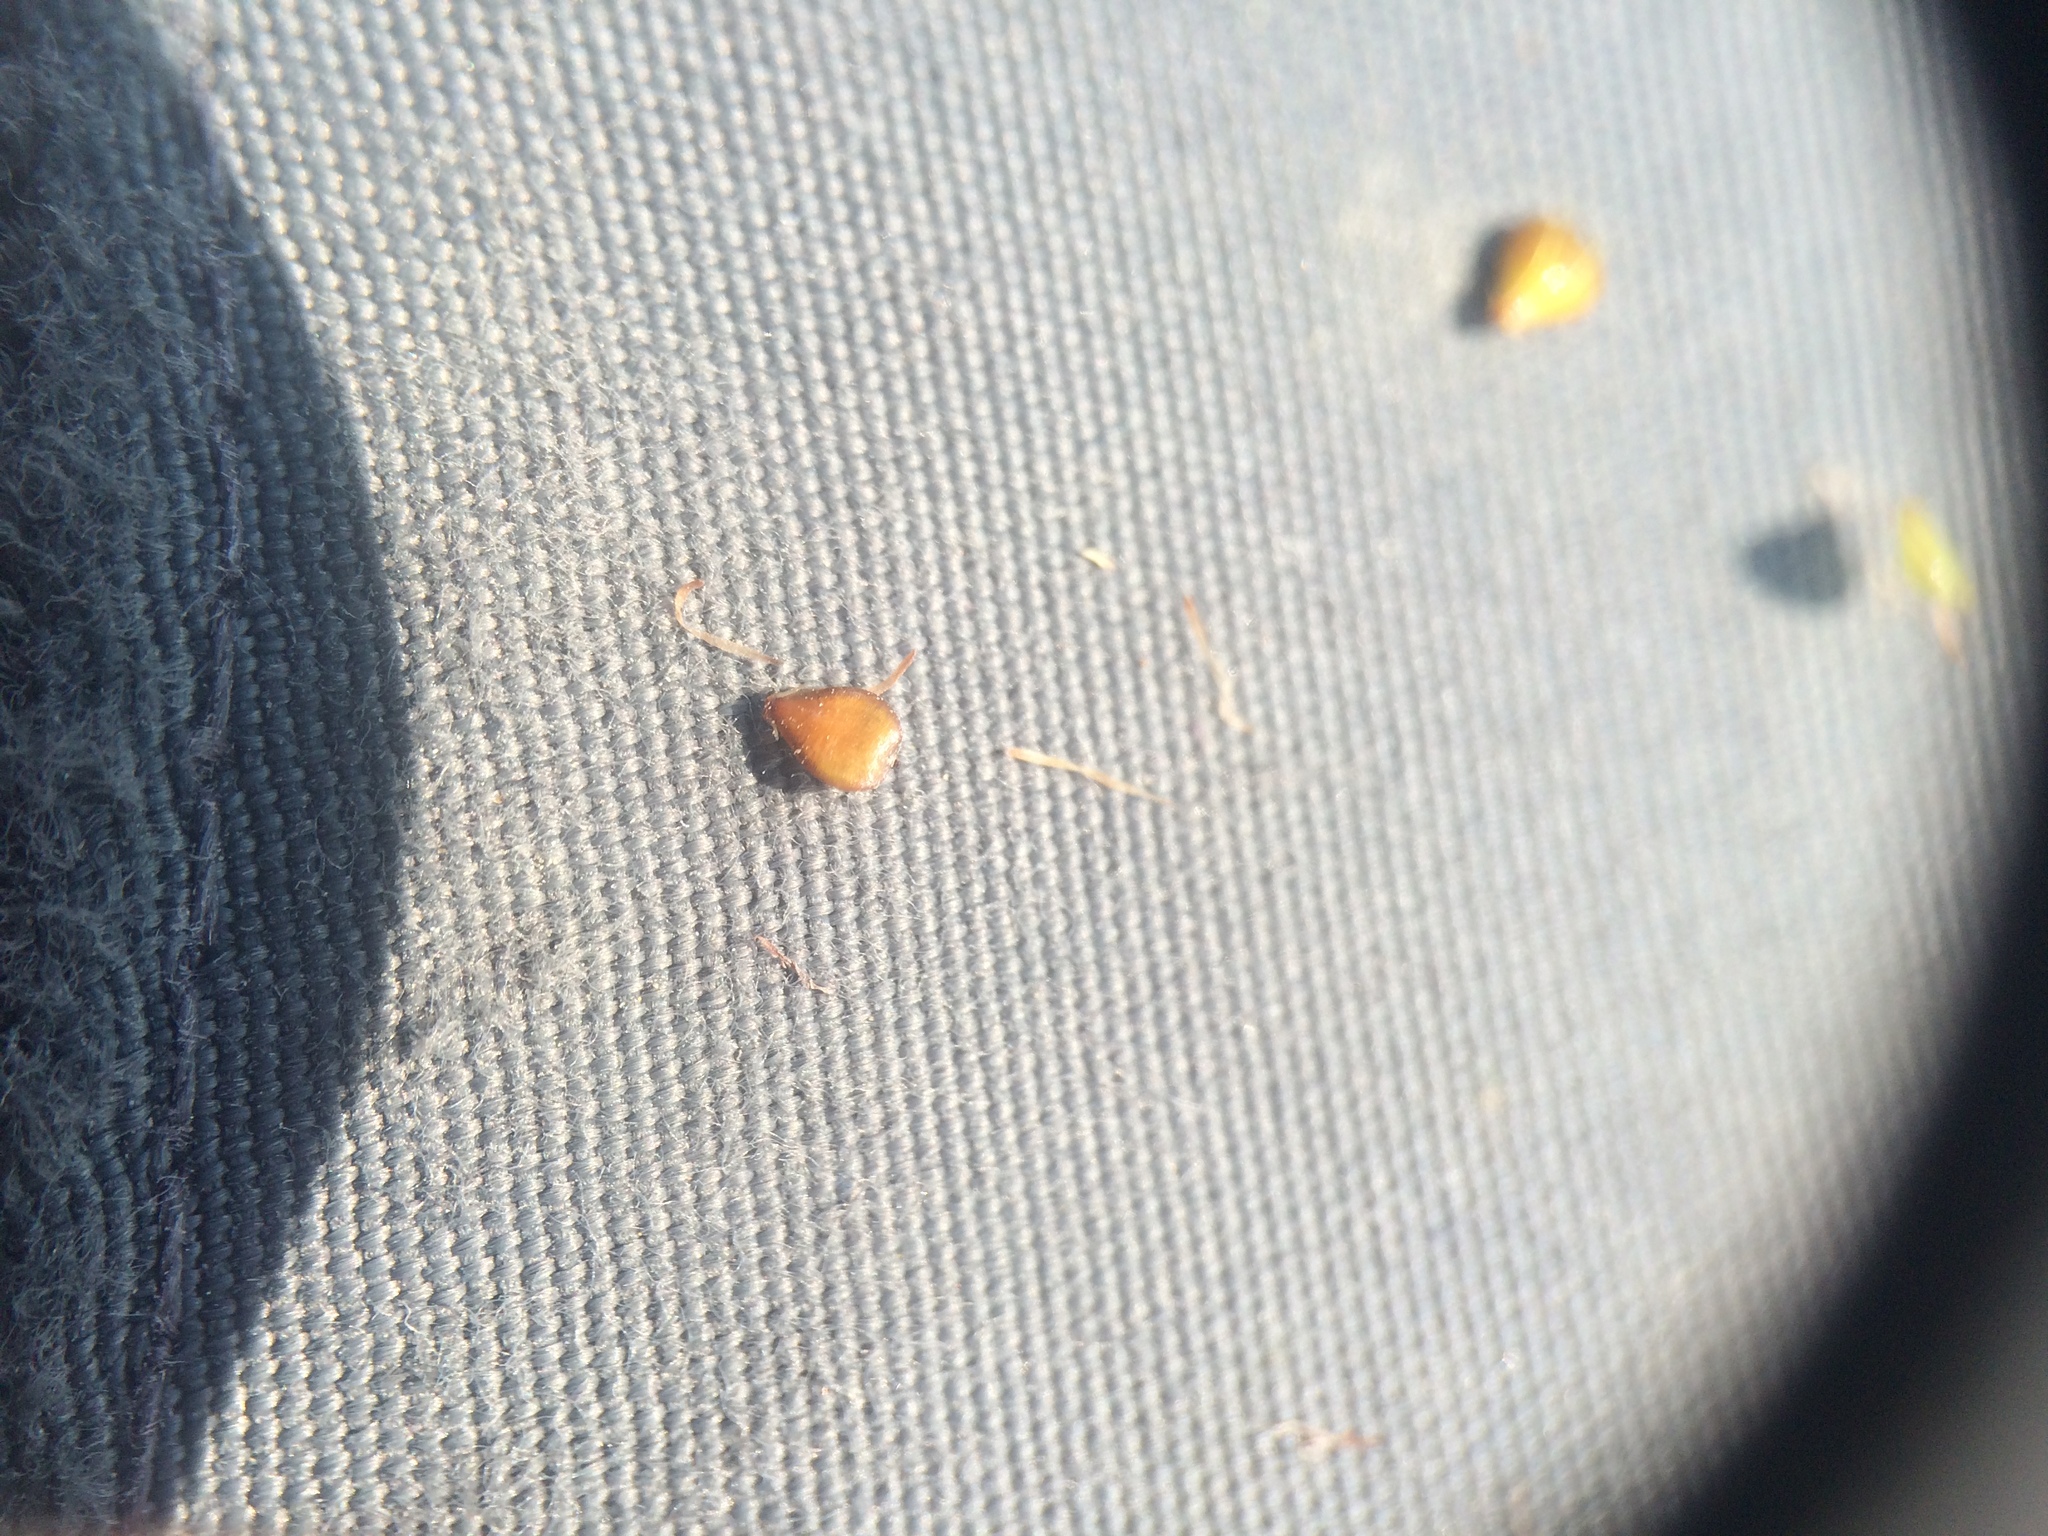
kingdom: Plantae
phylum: Tracheophyta
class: Liliopsida
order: Poales
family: Cyperaceae
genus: Schoenoplectiella
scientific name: Schoenoplectiella smithii
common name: Smith's bulrush
